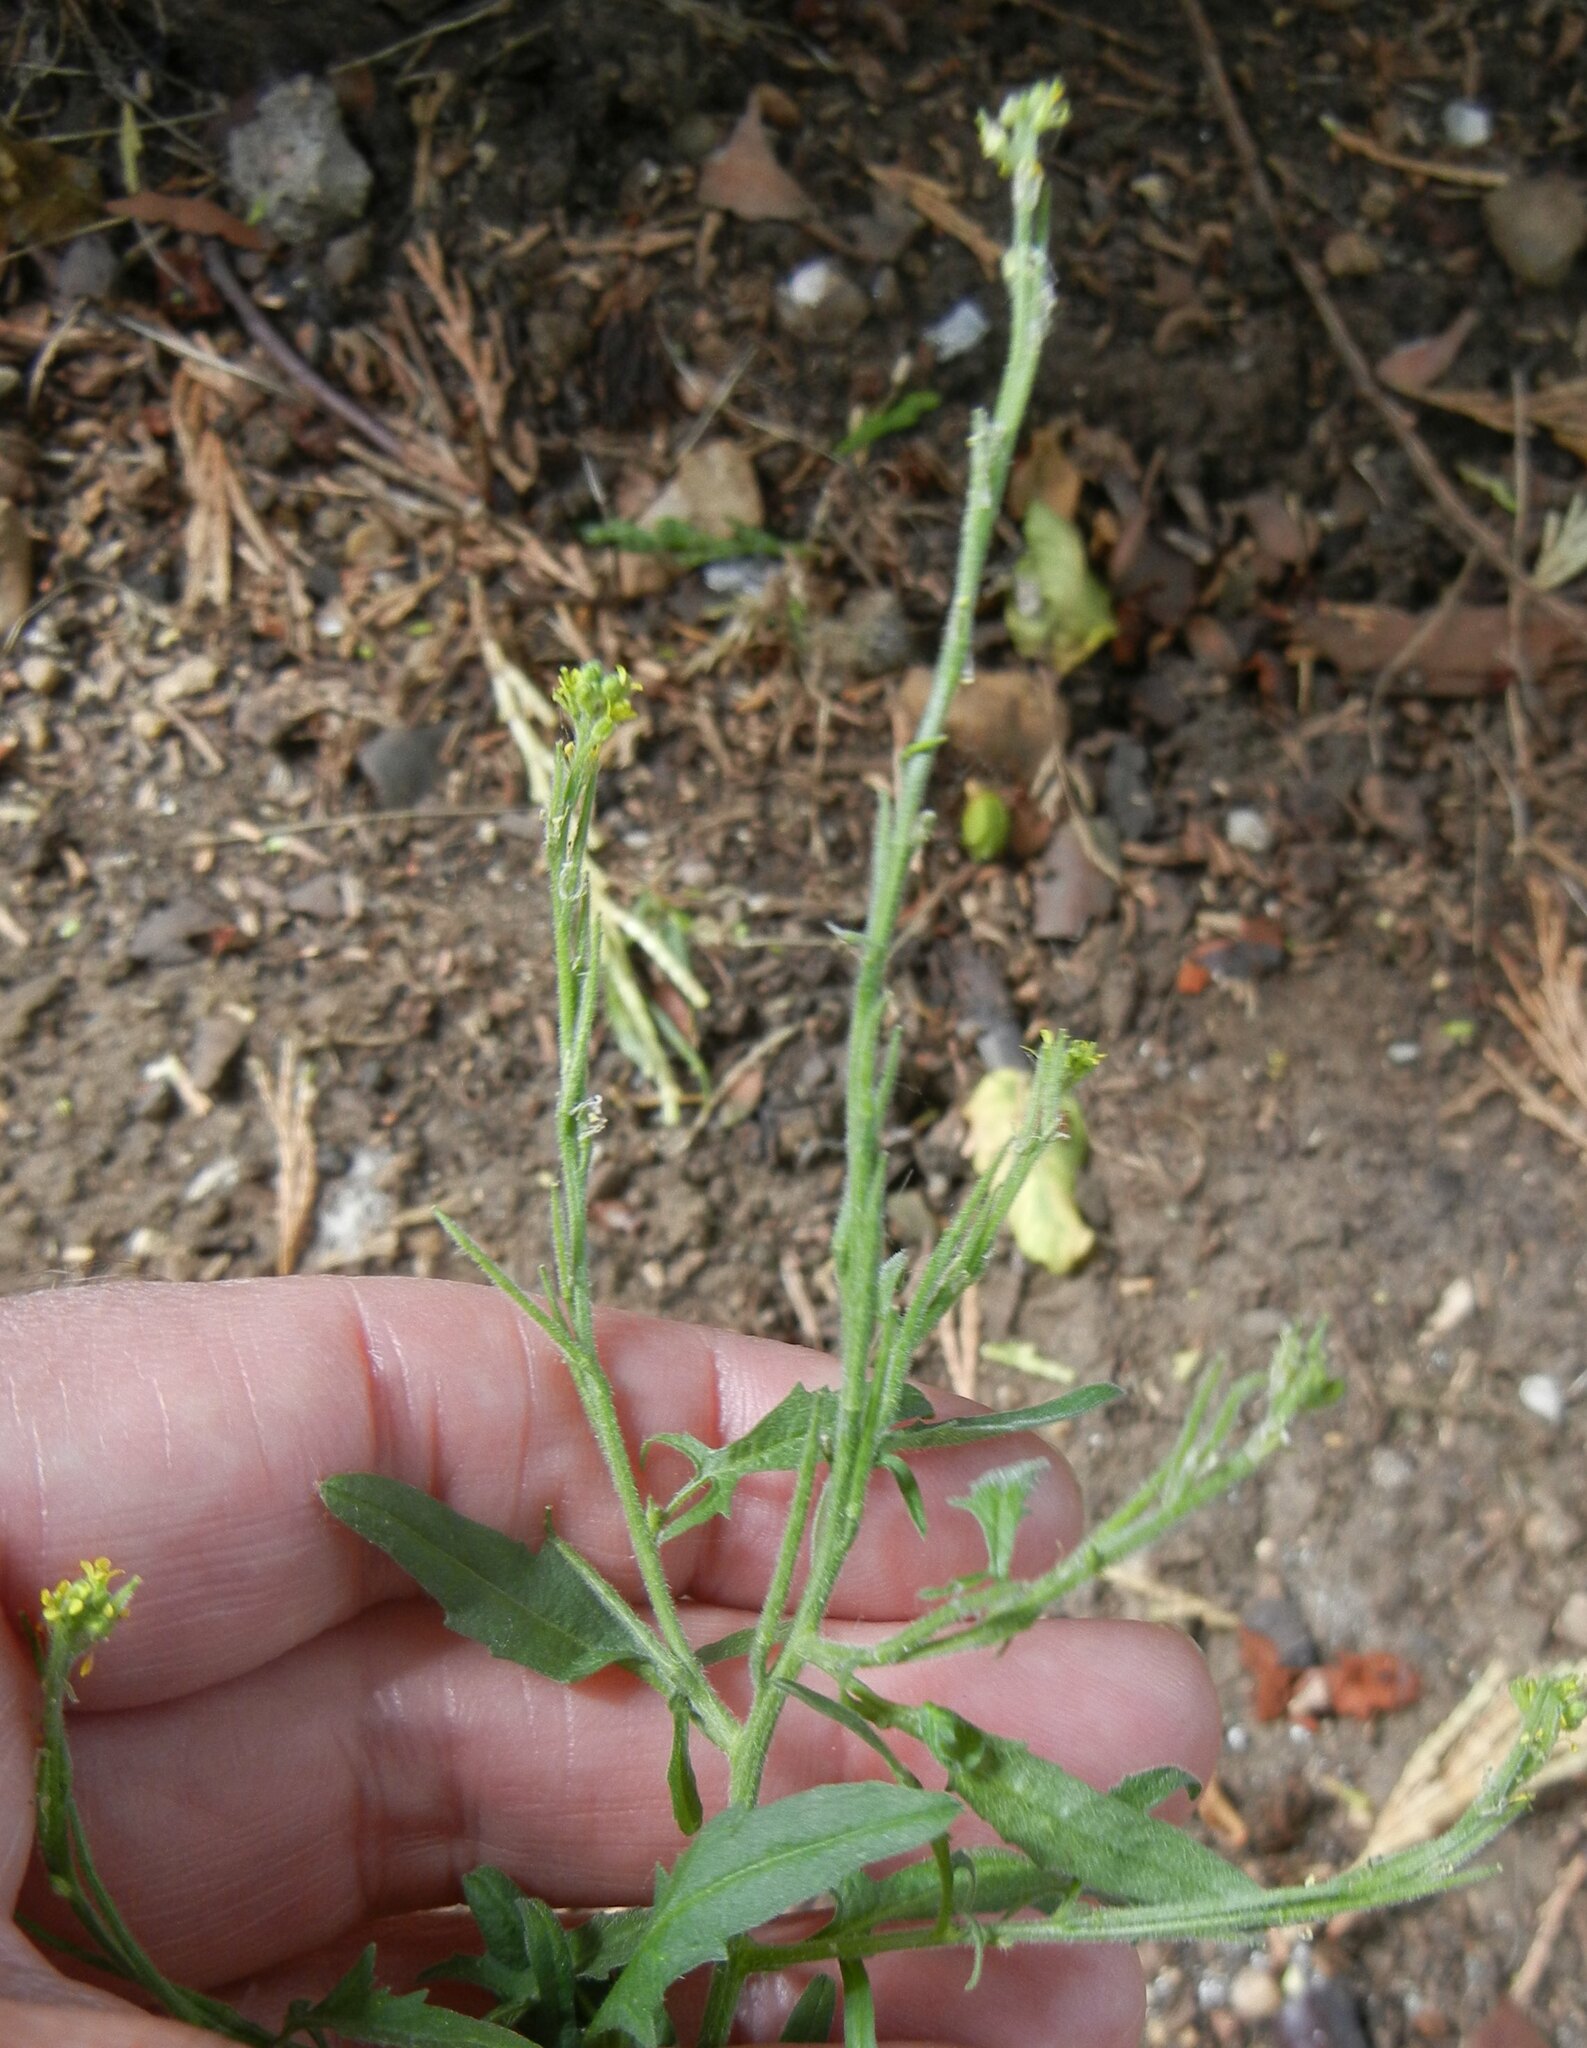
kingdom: Plantae
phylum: Tracheophyta
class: Magnoliopsida
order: Brassicales
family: Brassicaceae
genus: Sisymbrium
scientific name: Sisymbrium officinale
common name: Hedge mustard
